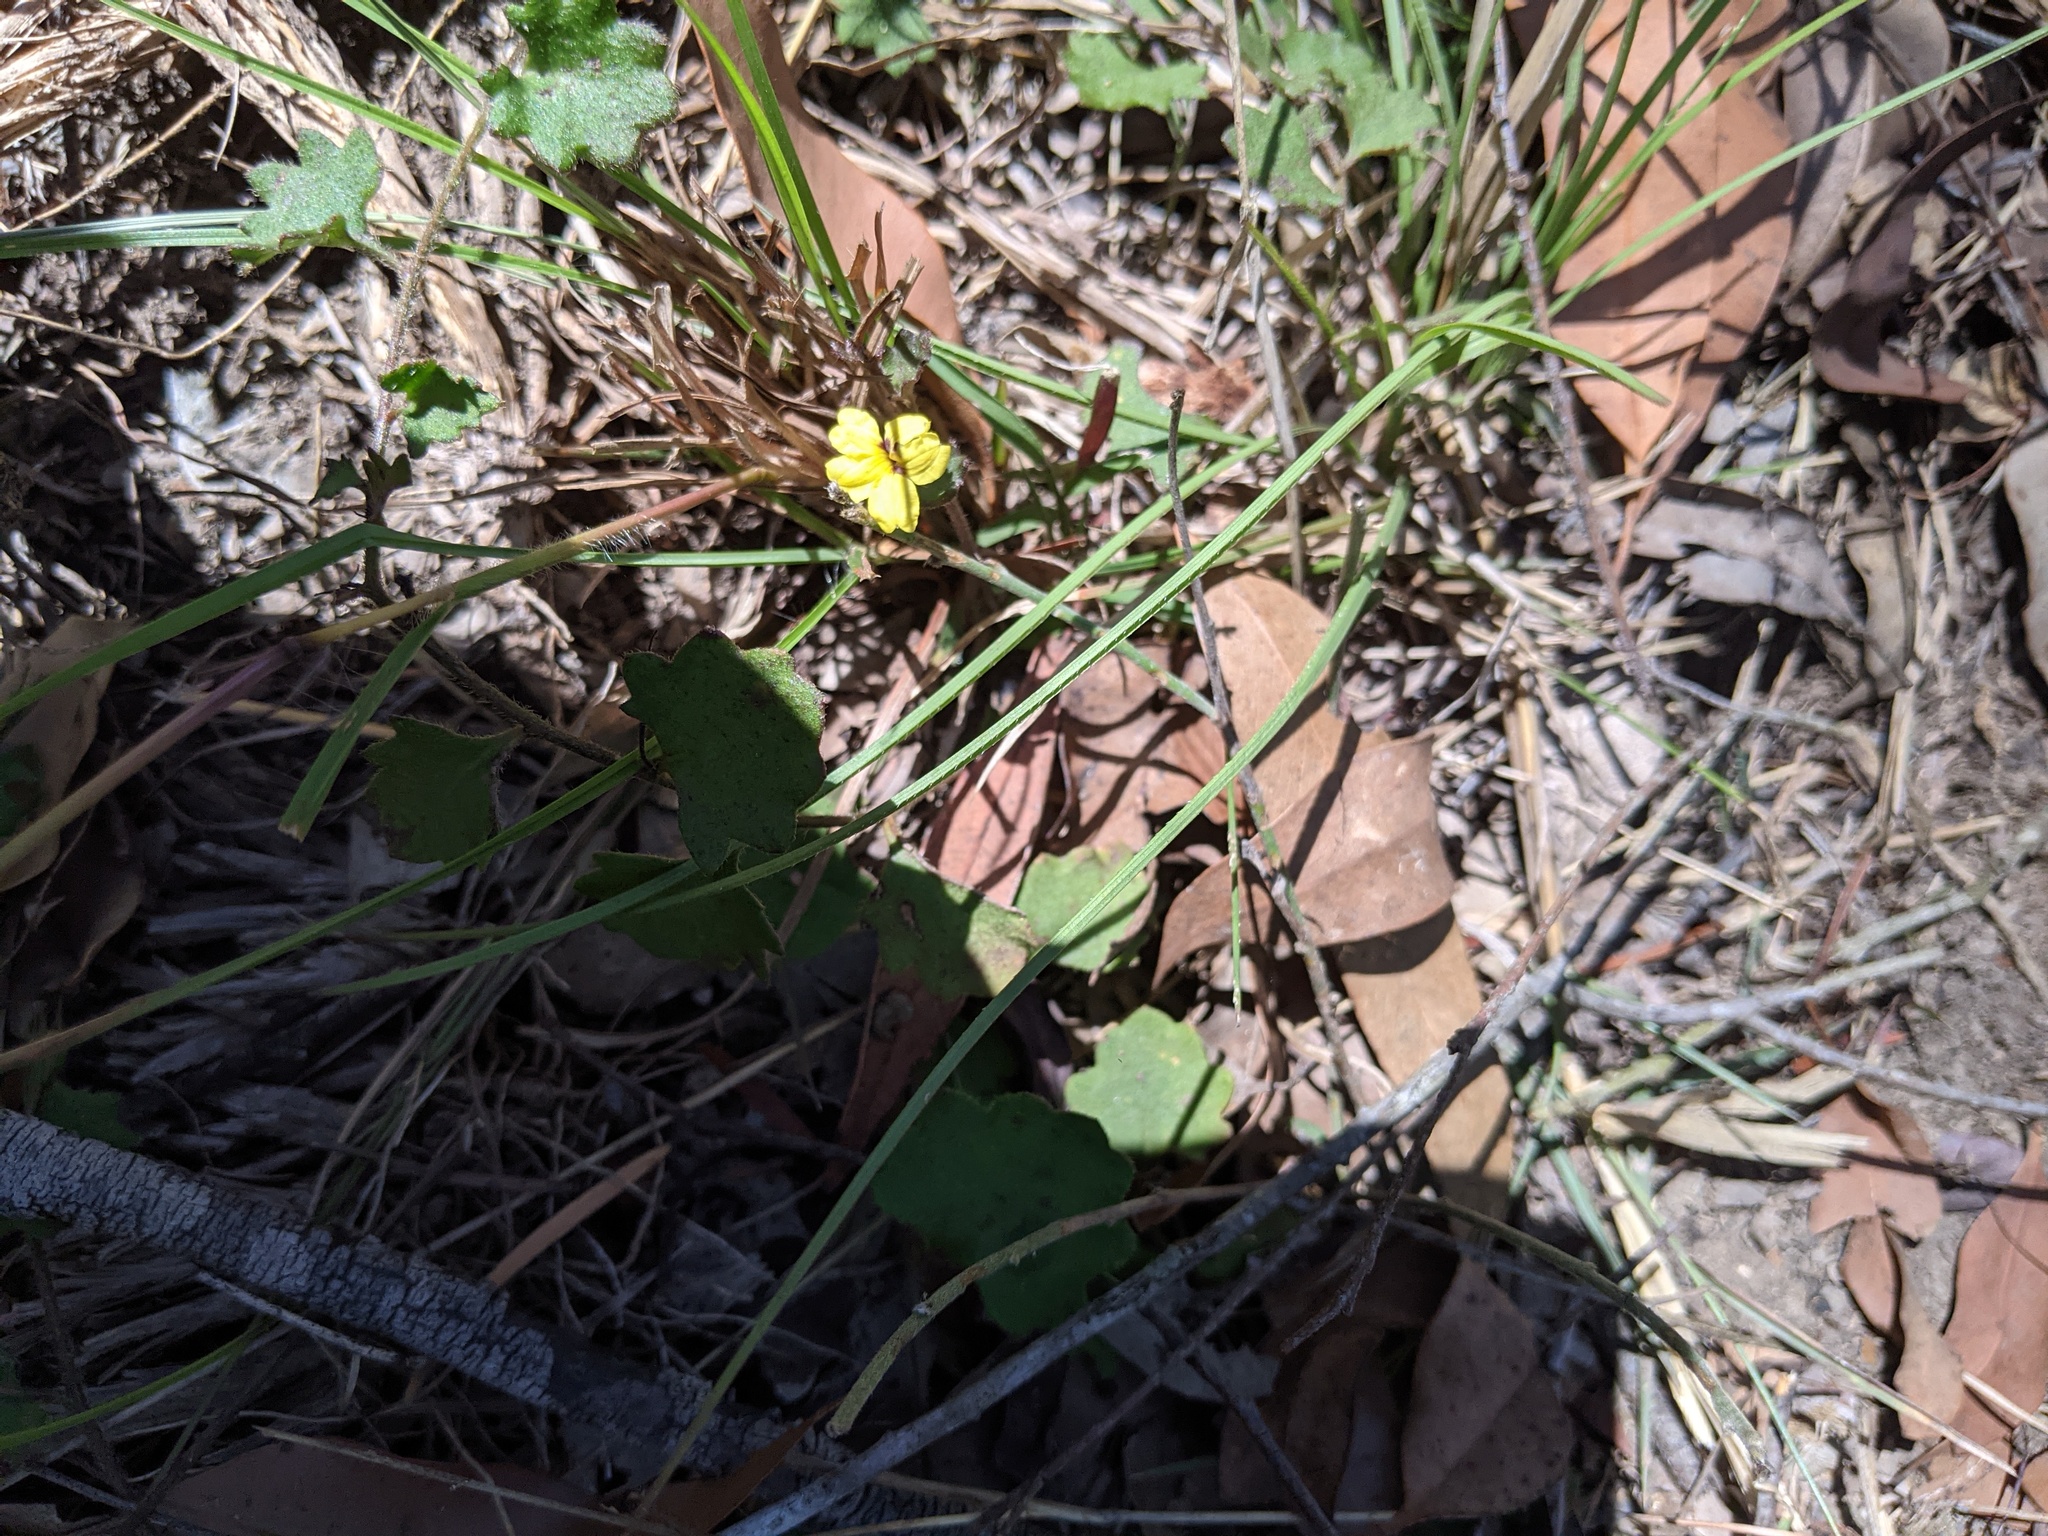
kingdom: Plantae
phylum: Tracheophyta
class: Magnoliopsida
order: Asterales
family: Goodeniaceae
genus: Goodenia
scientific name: Goodenia rotundifolia
